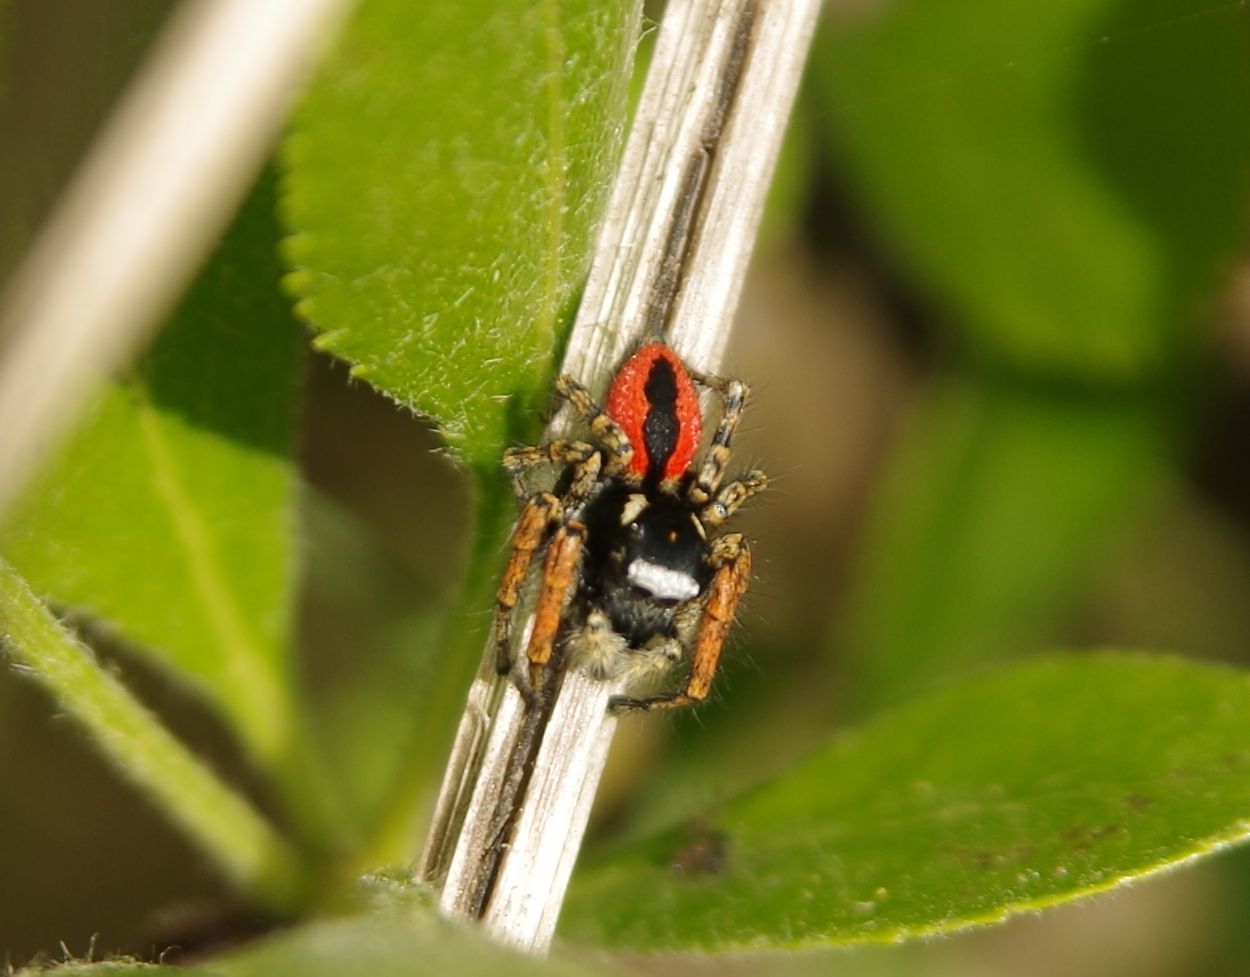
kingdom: Animalia
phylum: Arthropoda
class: Arachnida
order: Araneae
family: Salticidae
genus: Philaeus
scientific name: Philaeus chrysops
